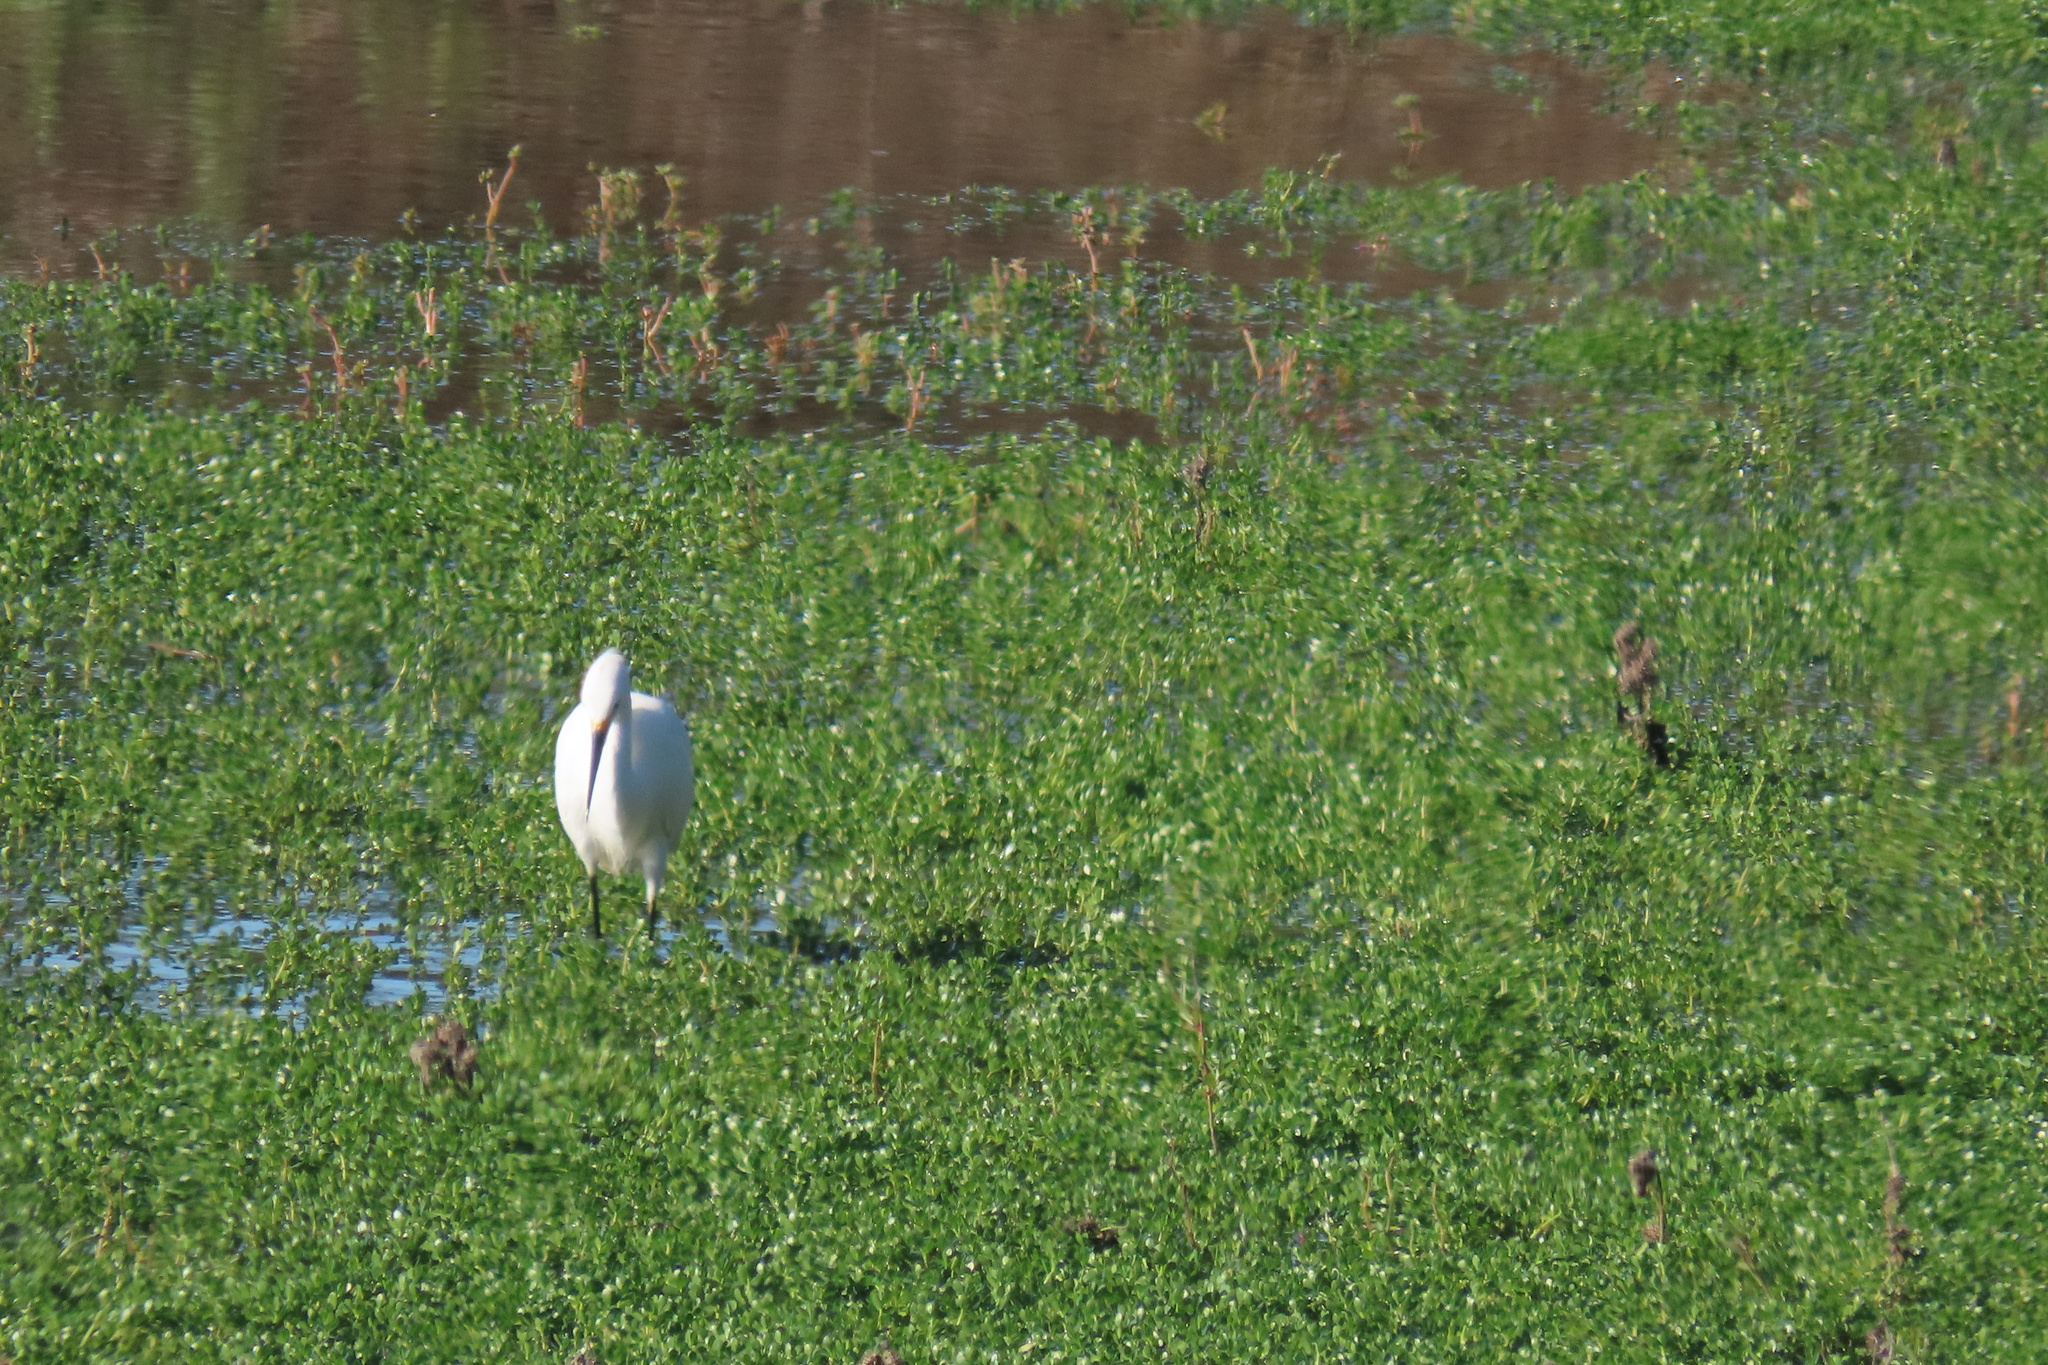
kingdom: Animalia
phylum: Chordata
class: Aves
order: Pelecaniformes
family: Ardeidae
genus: Egretta
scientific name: Egretta thula
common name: Snowy egret
